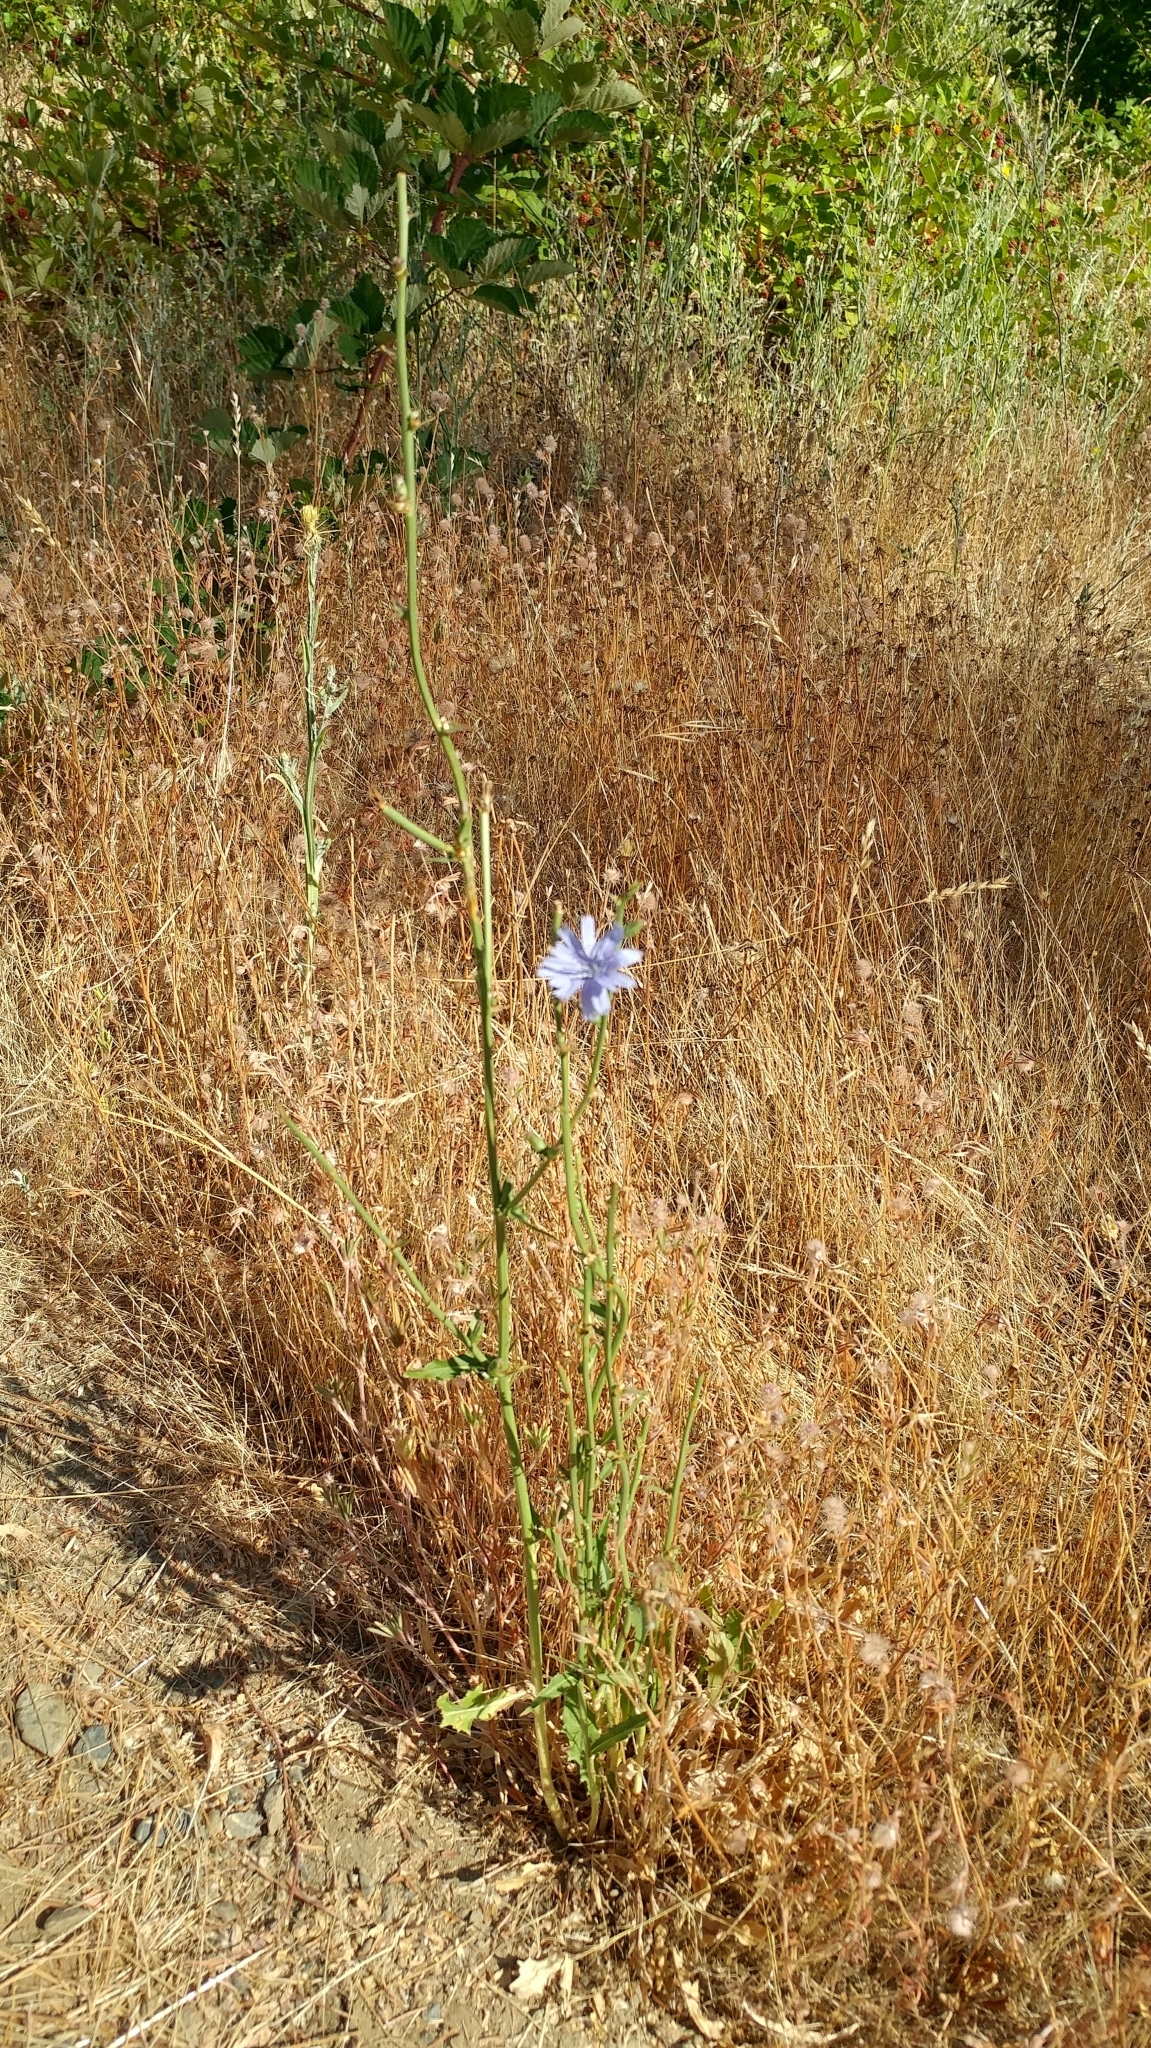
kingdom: Plantae
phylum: Tracheophyta
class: Magnoliopsida
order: Asterales
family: Asteraceae
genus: Cichorium
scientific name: Cichorium intybus
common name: Chicory
